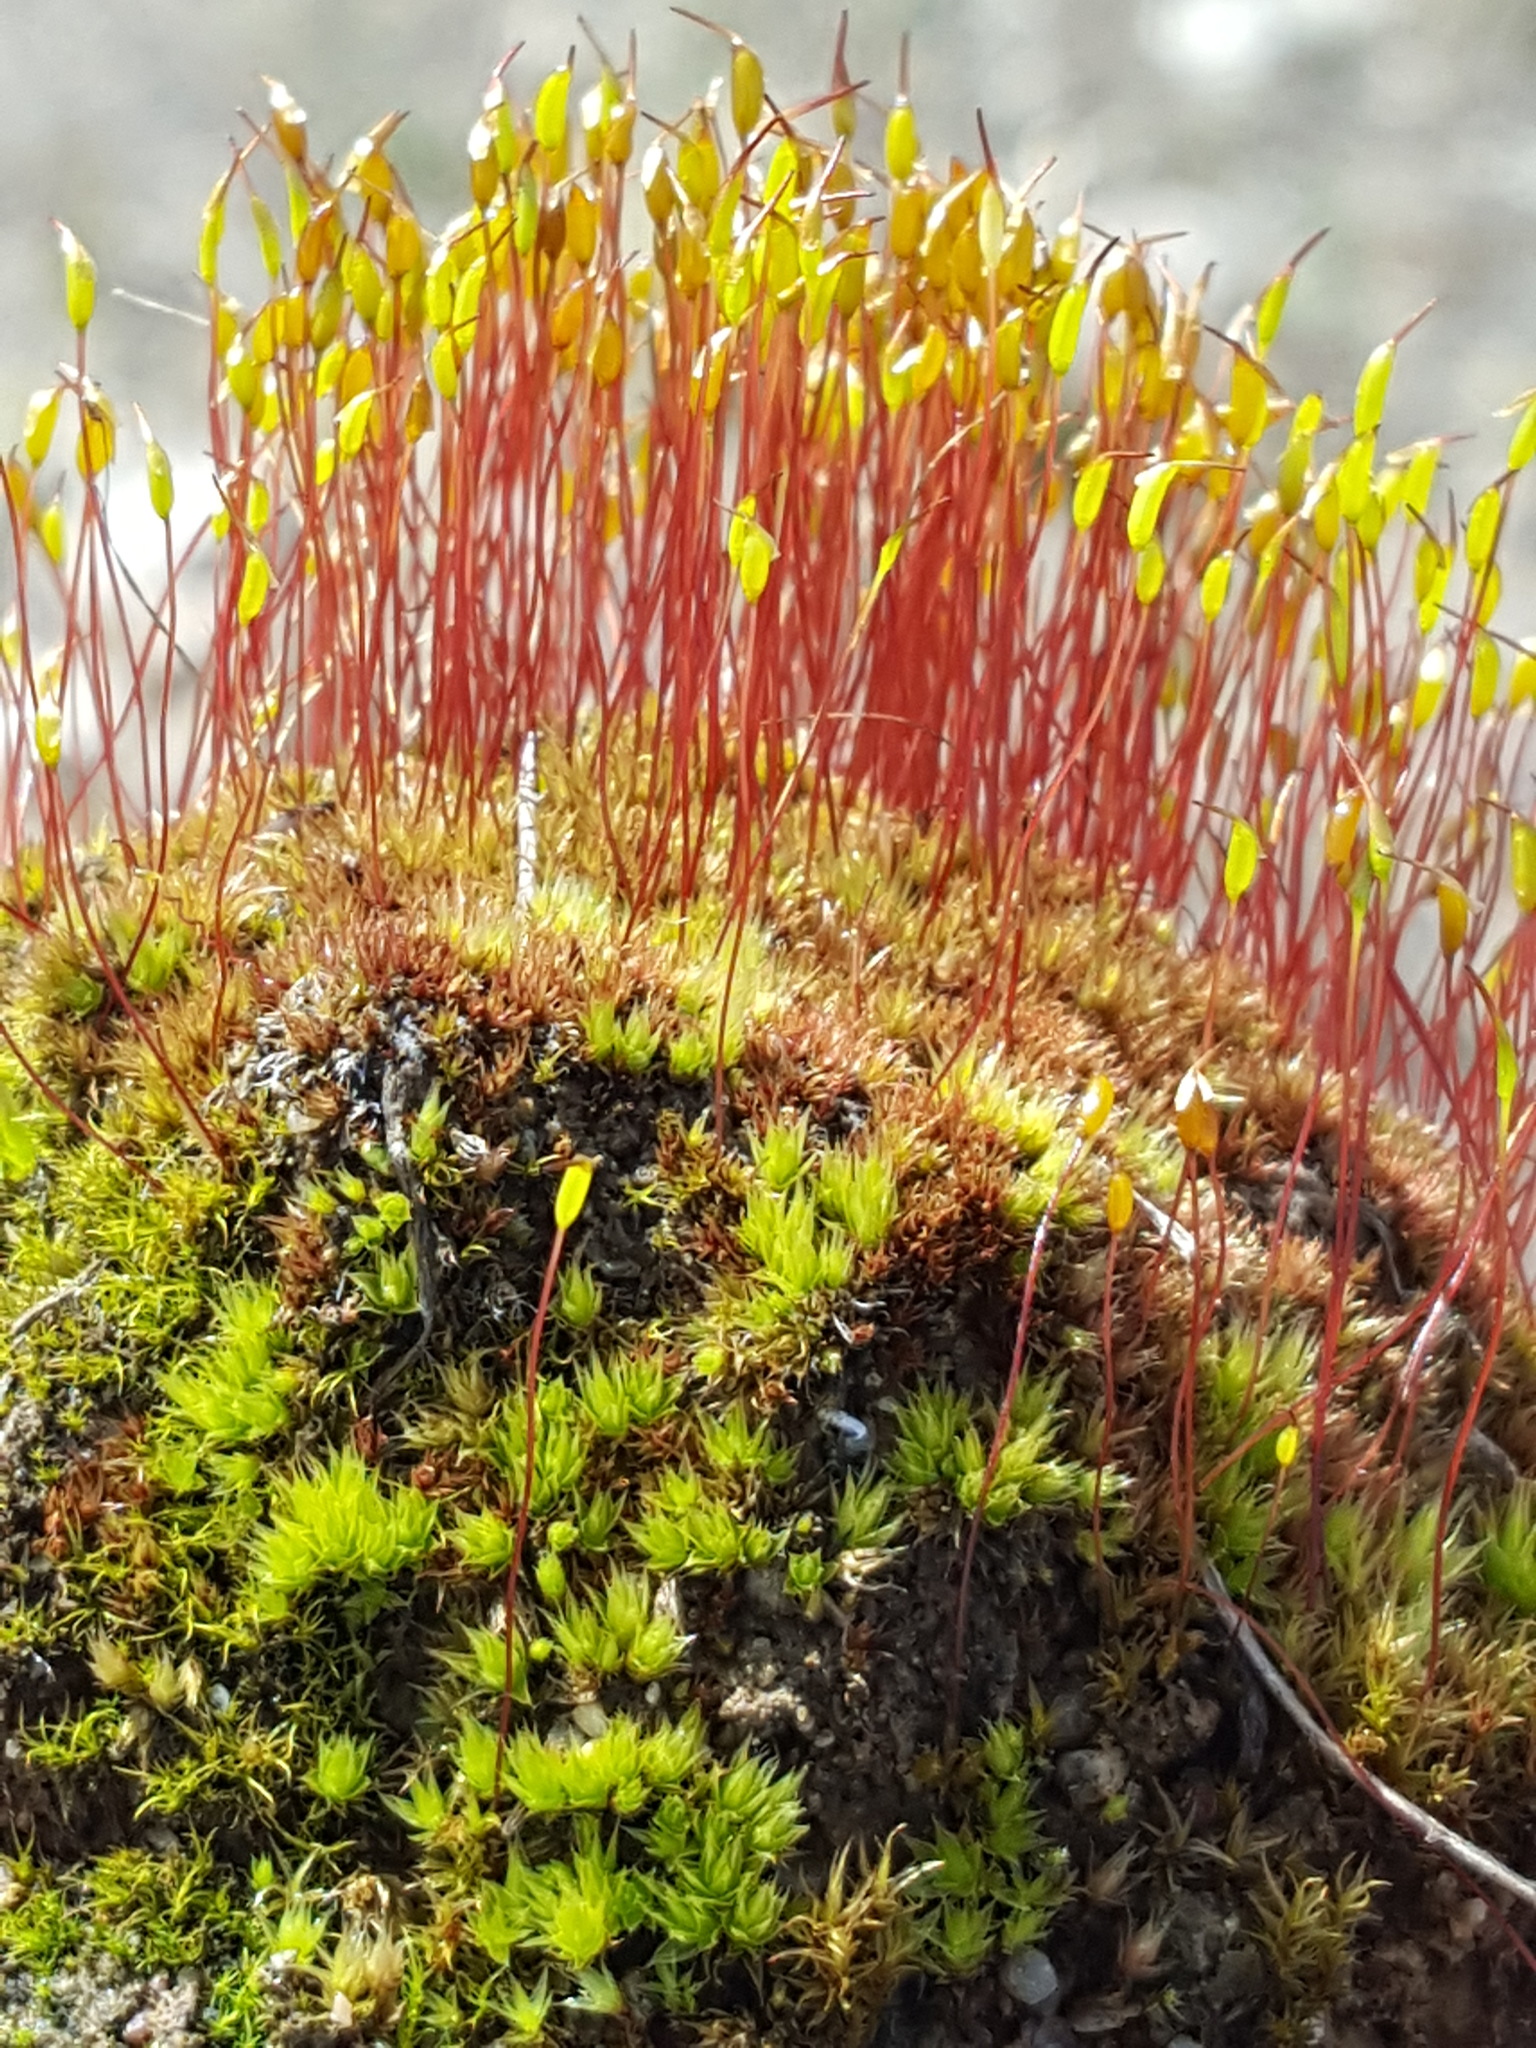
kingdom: Plantae
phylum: Bryophyta
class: Bryopsida
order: Dicranales
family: Ditrichaceae
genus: Ceratodon
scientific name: Ceratodon purpureus
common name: Redshank
